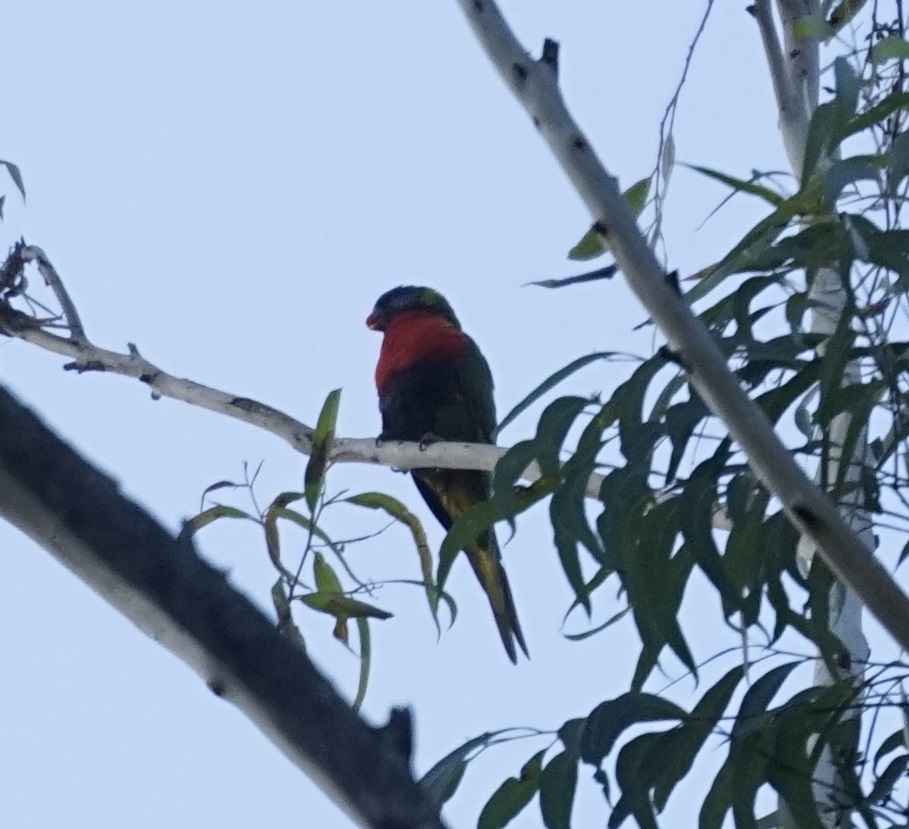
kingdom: Animalia
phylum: Chordata
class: Aves
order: Psittaciformes
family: Psittacidae
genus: Trichoglossus
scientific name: Trichoglossus haematodus
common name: Coconut lorikeet
